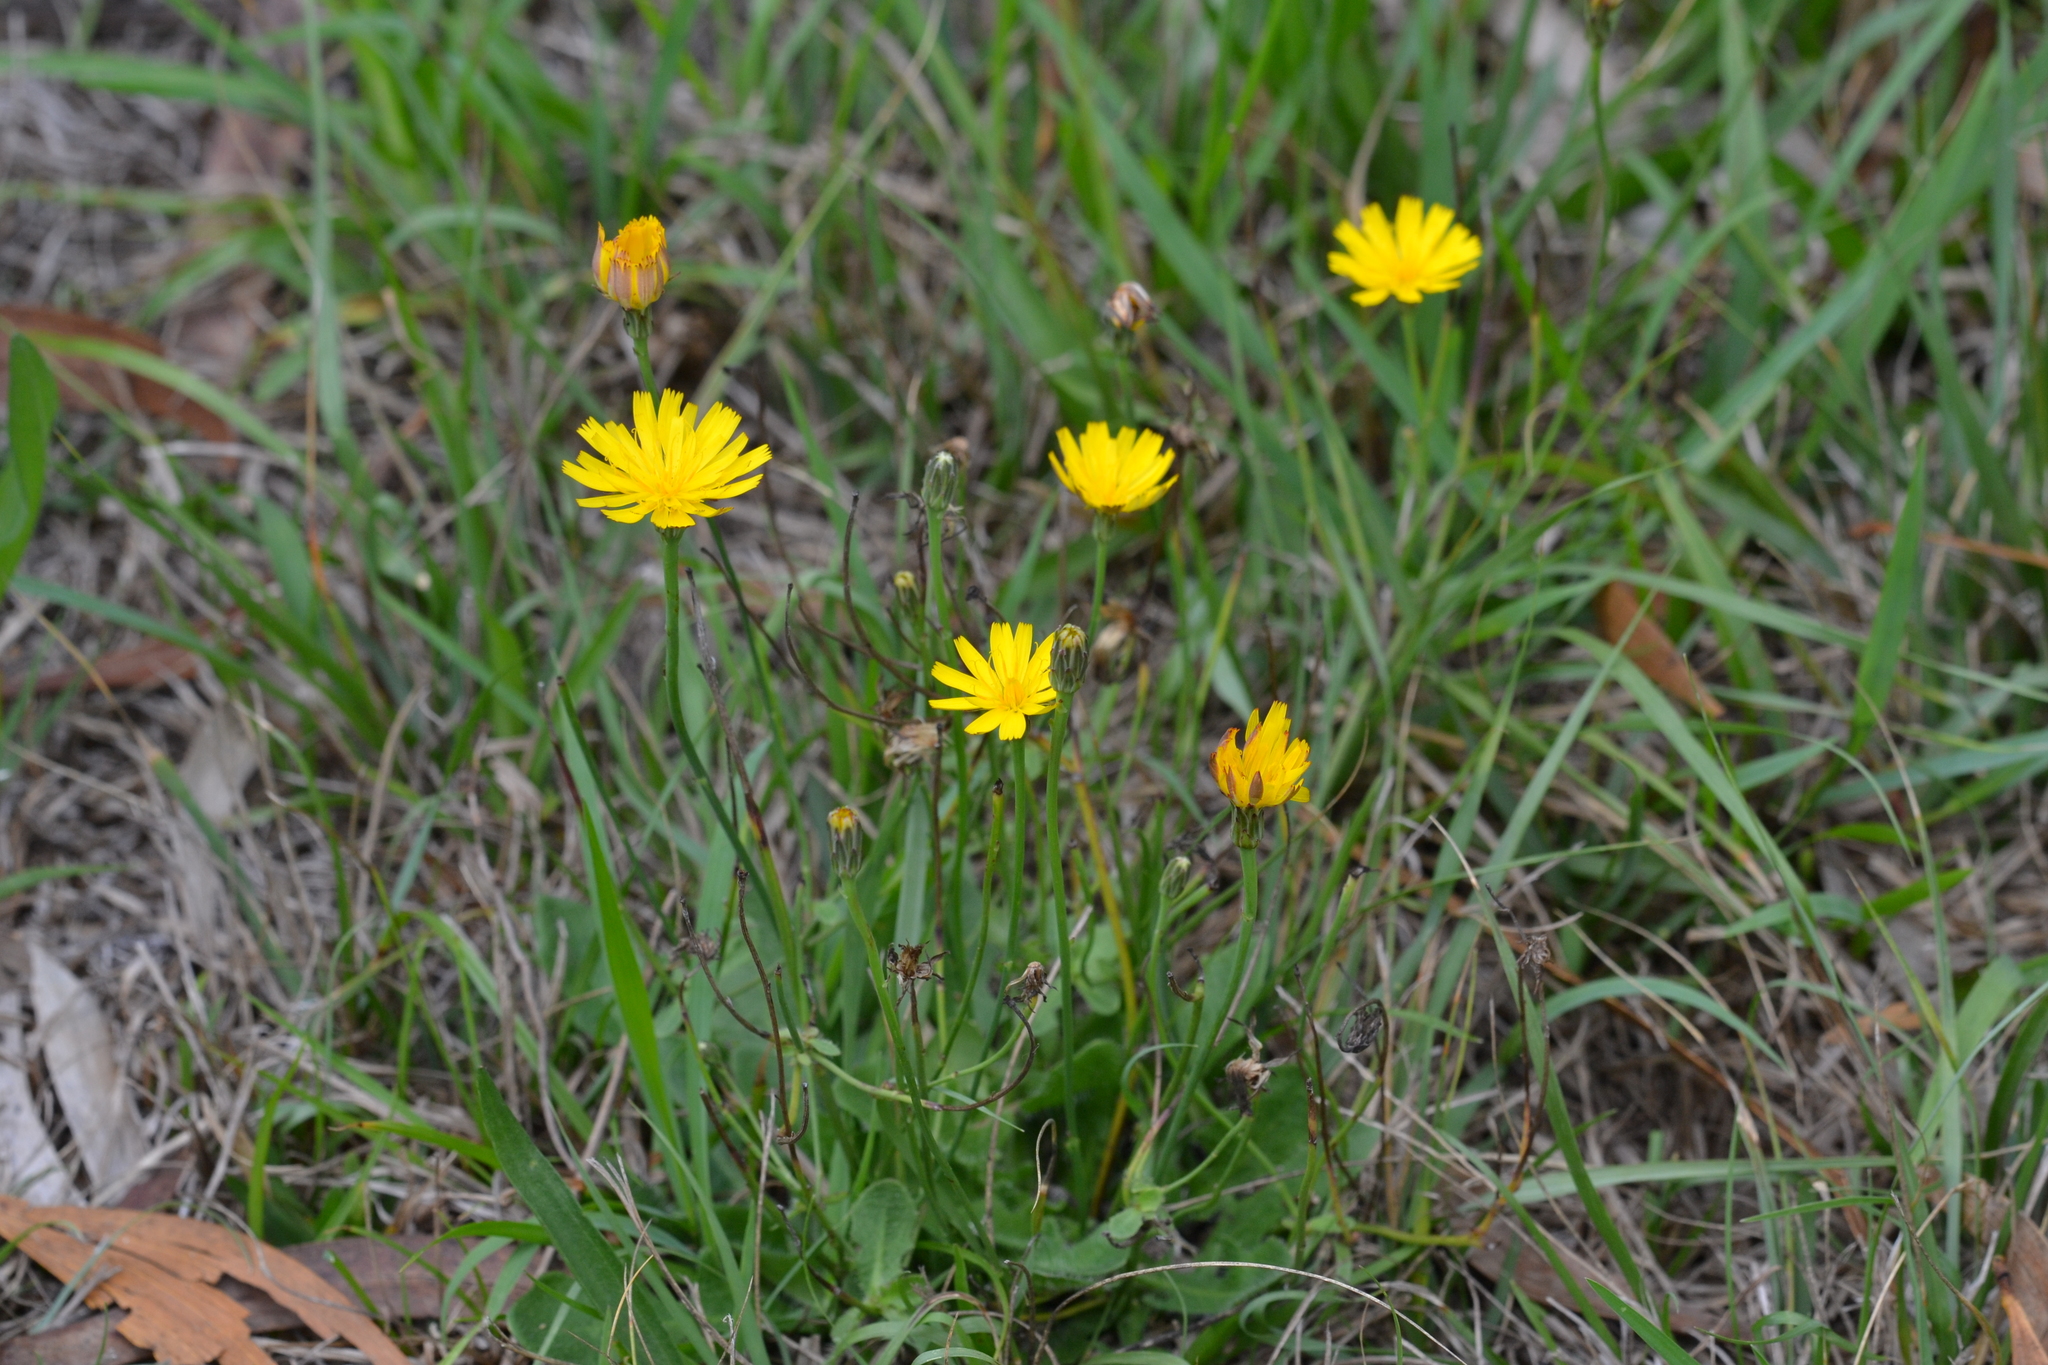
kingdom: Plantae
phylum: Tracheophyta
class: Magnoliopsida
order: Asterales
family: Asteraceae
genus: Hypochaeris
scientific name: Hypochaeris radicata
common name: Flatweed
